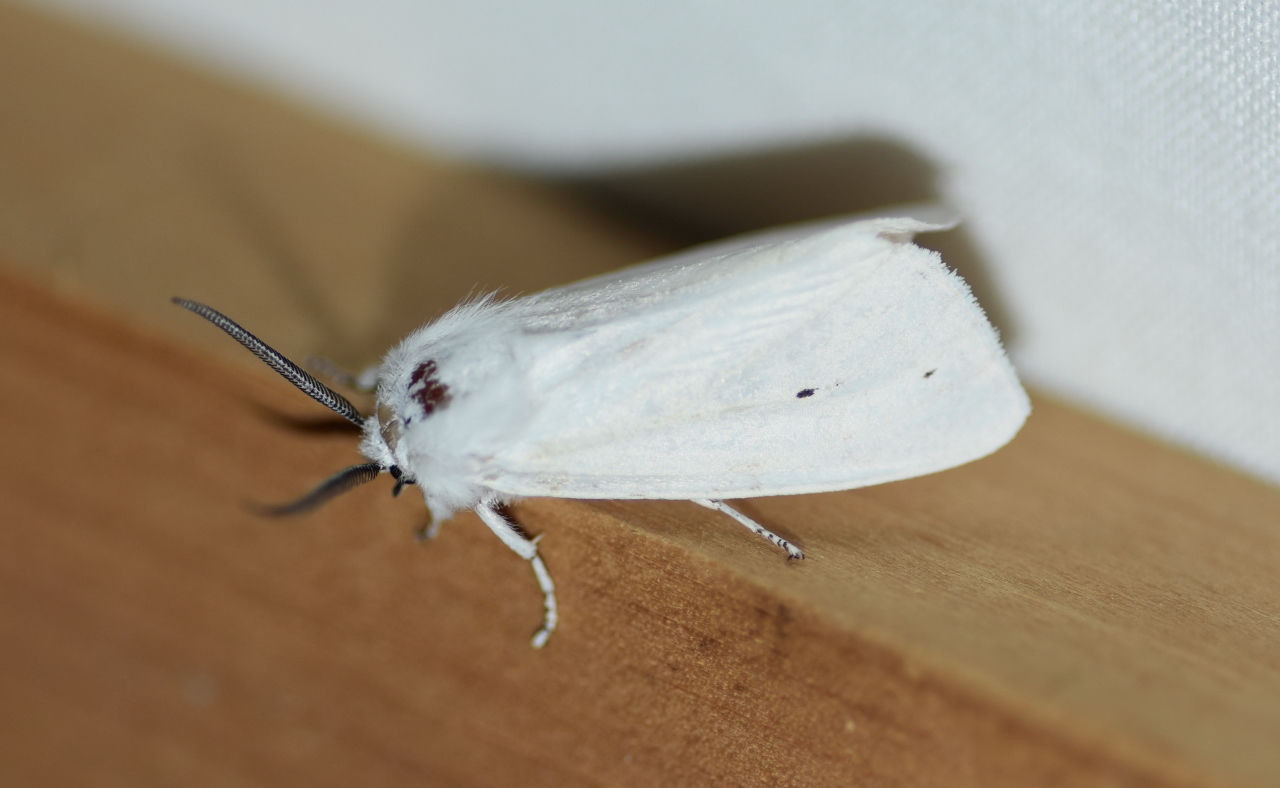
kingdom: Animalia
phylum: Arthropoda
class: Insecta
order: Lepidoptera
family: Erebidae
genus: Spilosoma
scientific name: Spilosoma virginica
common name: Virginia tiger moth
